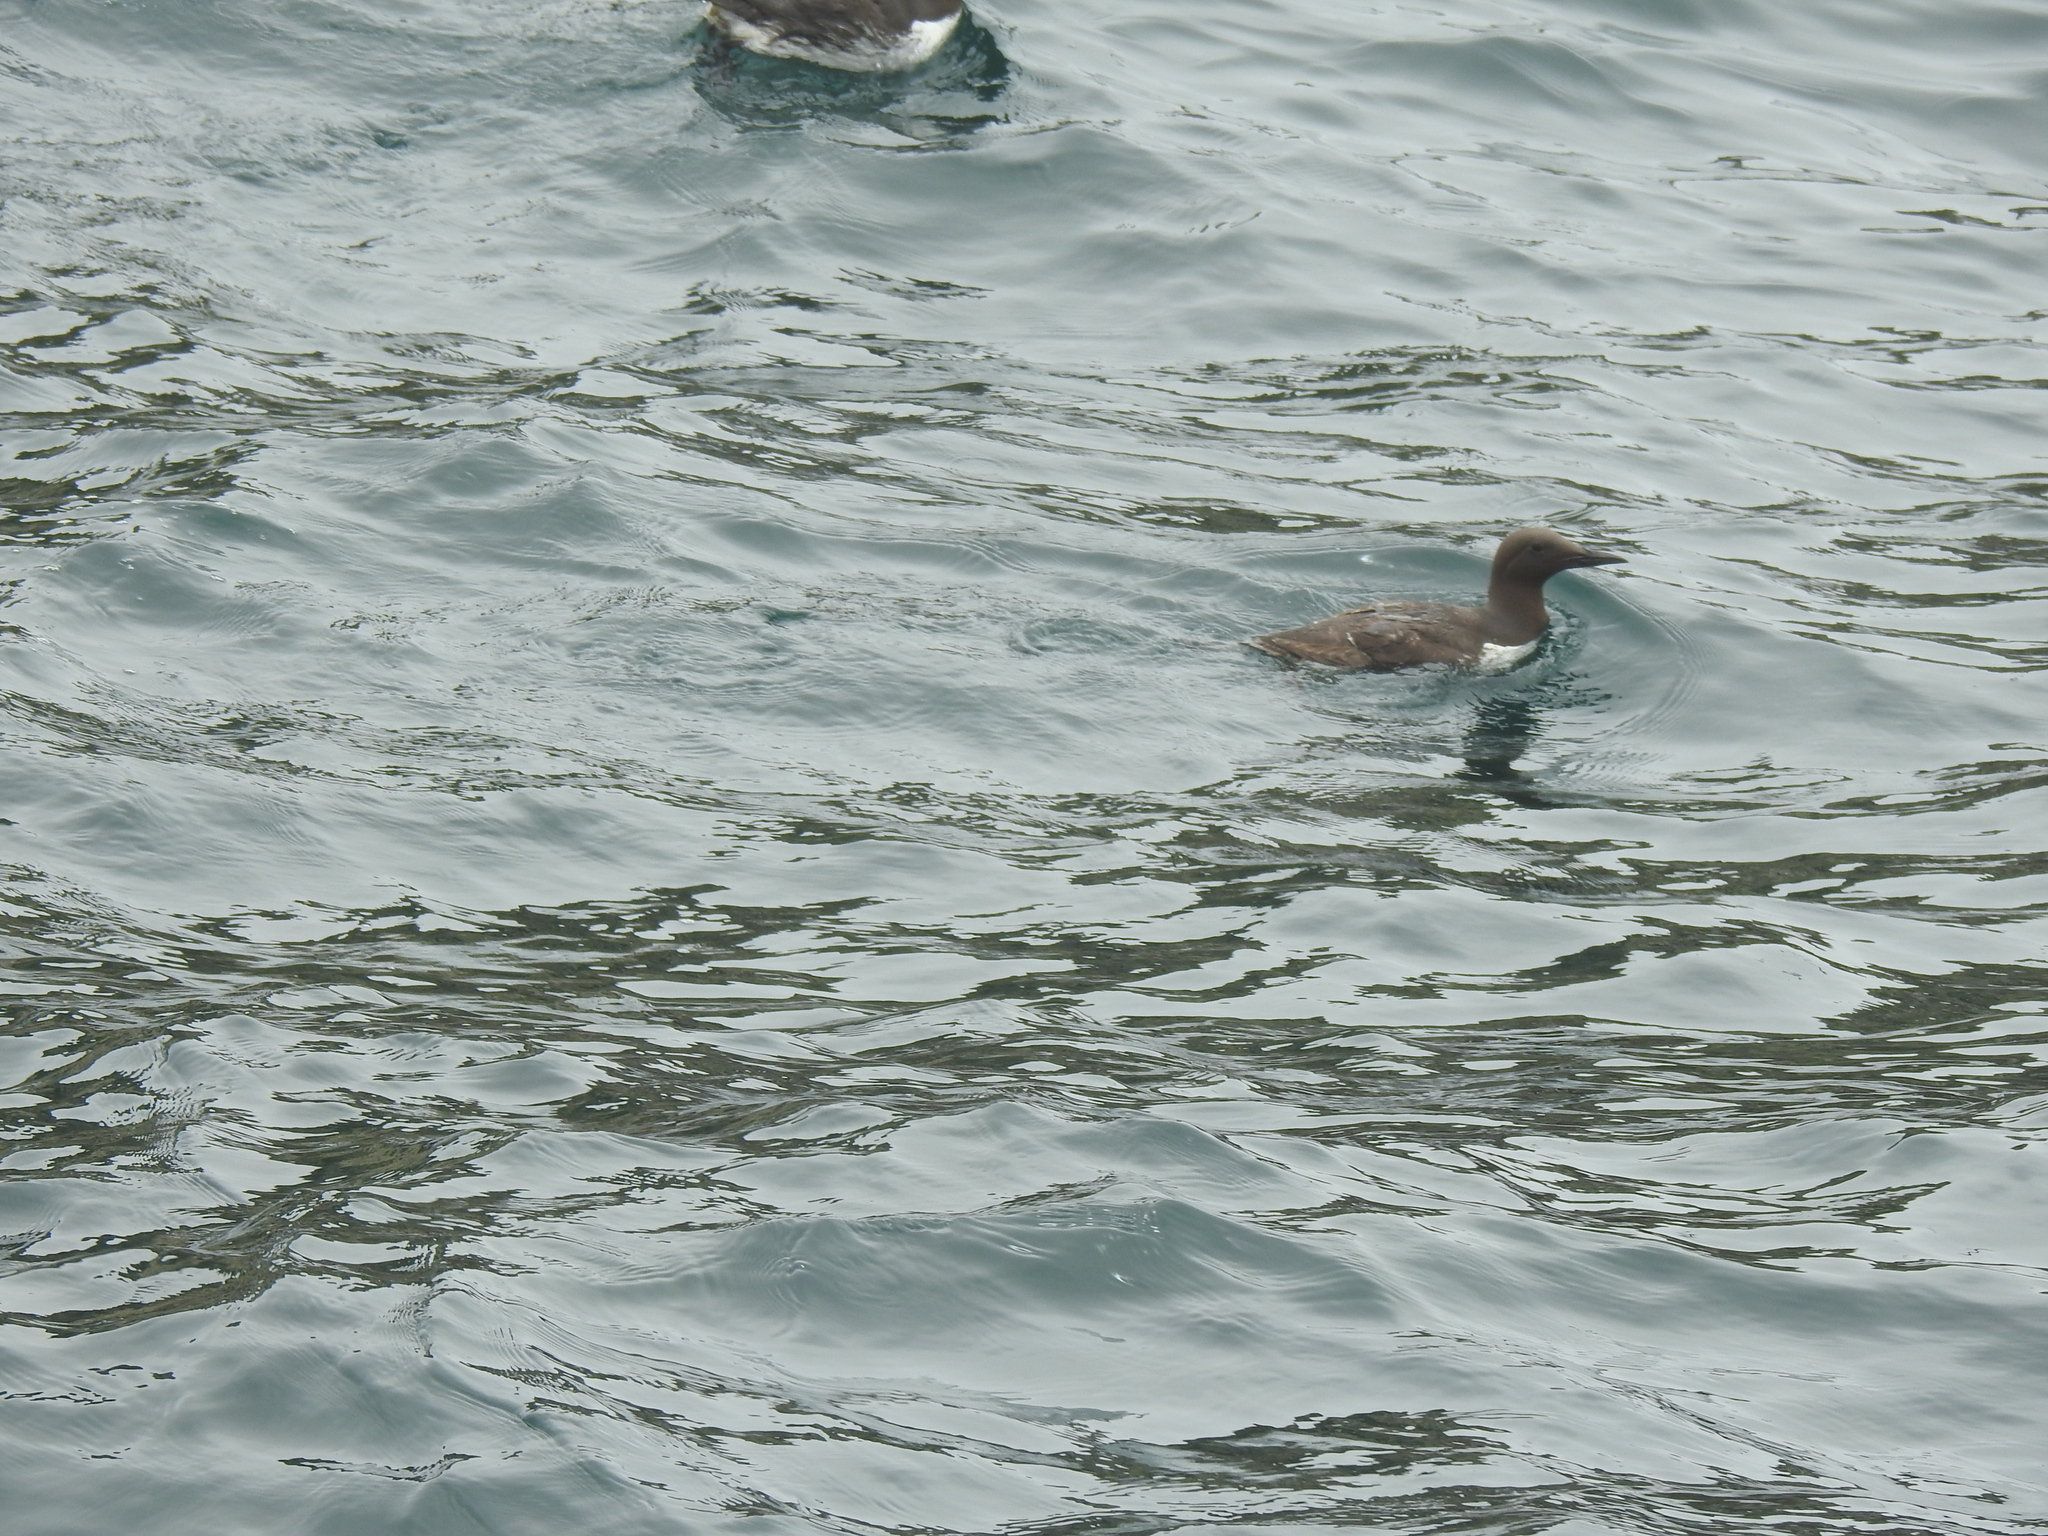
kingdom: Animalia
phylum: Chordata
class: Aves
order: Charadriiformes
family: Alcidae
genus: Uria
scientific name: Uria aalge
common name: Common murre
